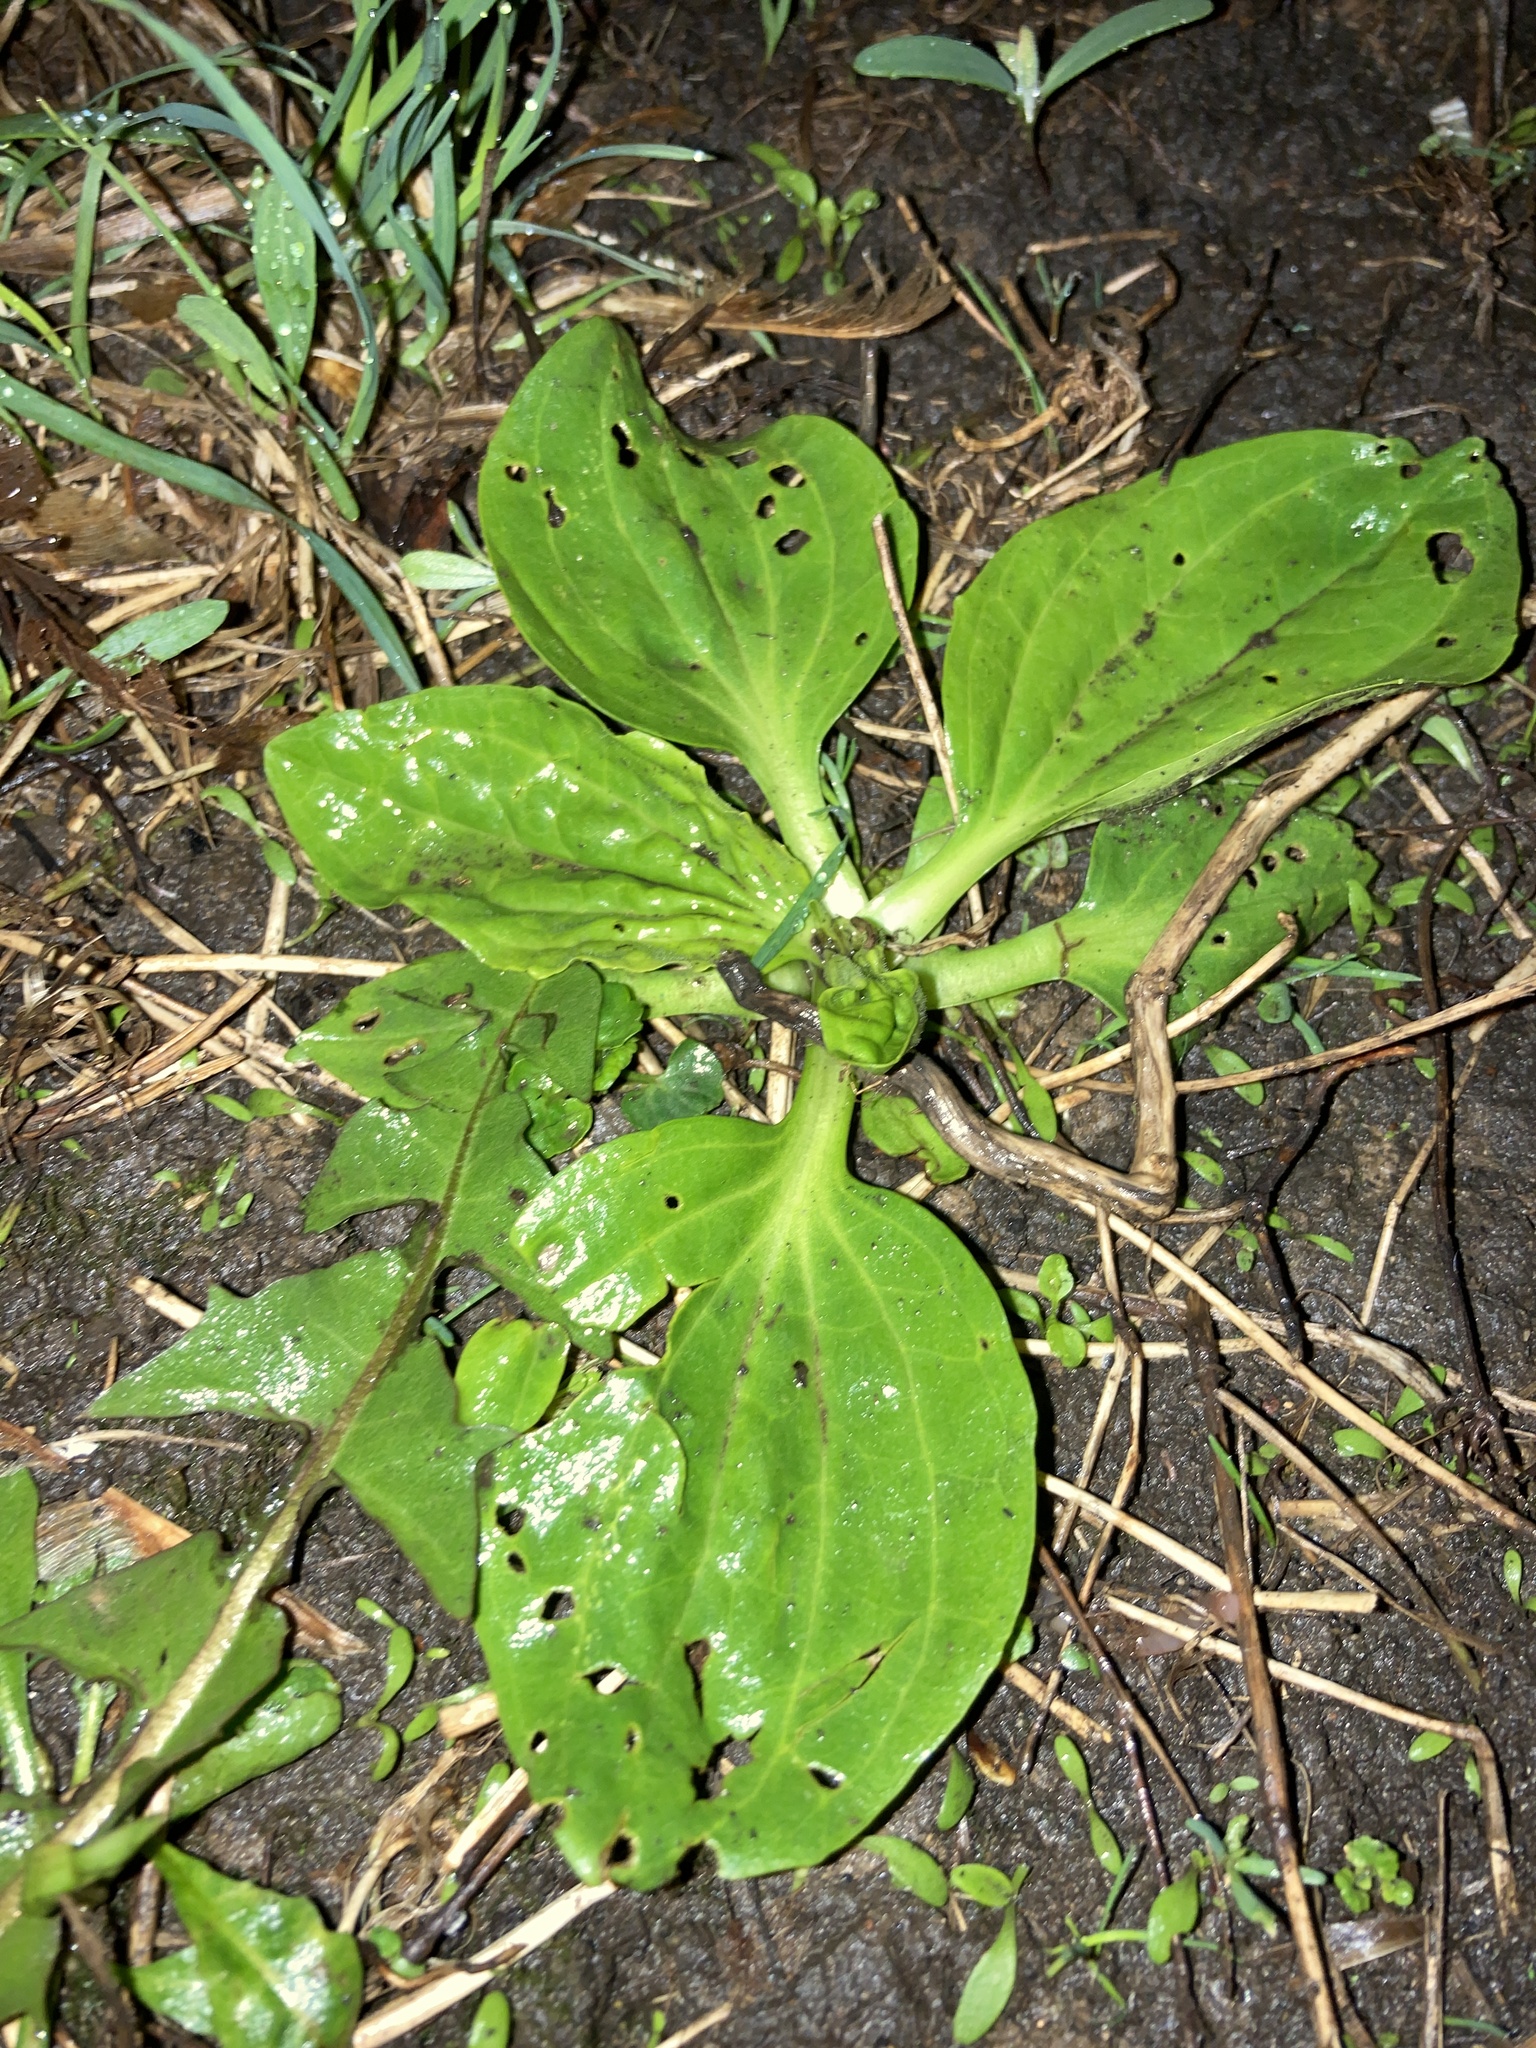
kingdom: Plantae
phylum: Tracheophyta
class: Magnoliopsida
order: Lamiales
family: Plantaginaceae
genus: Plantago
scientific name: Plantago major
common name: Common plantain
